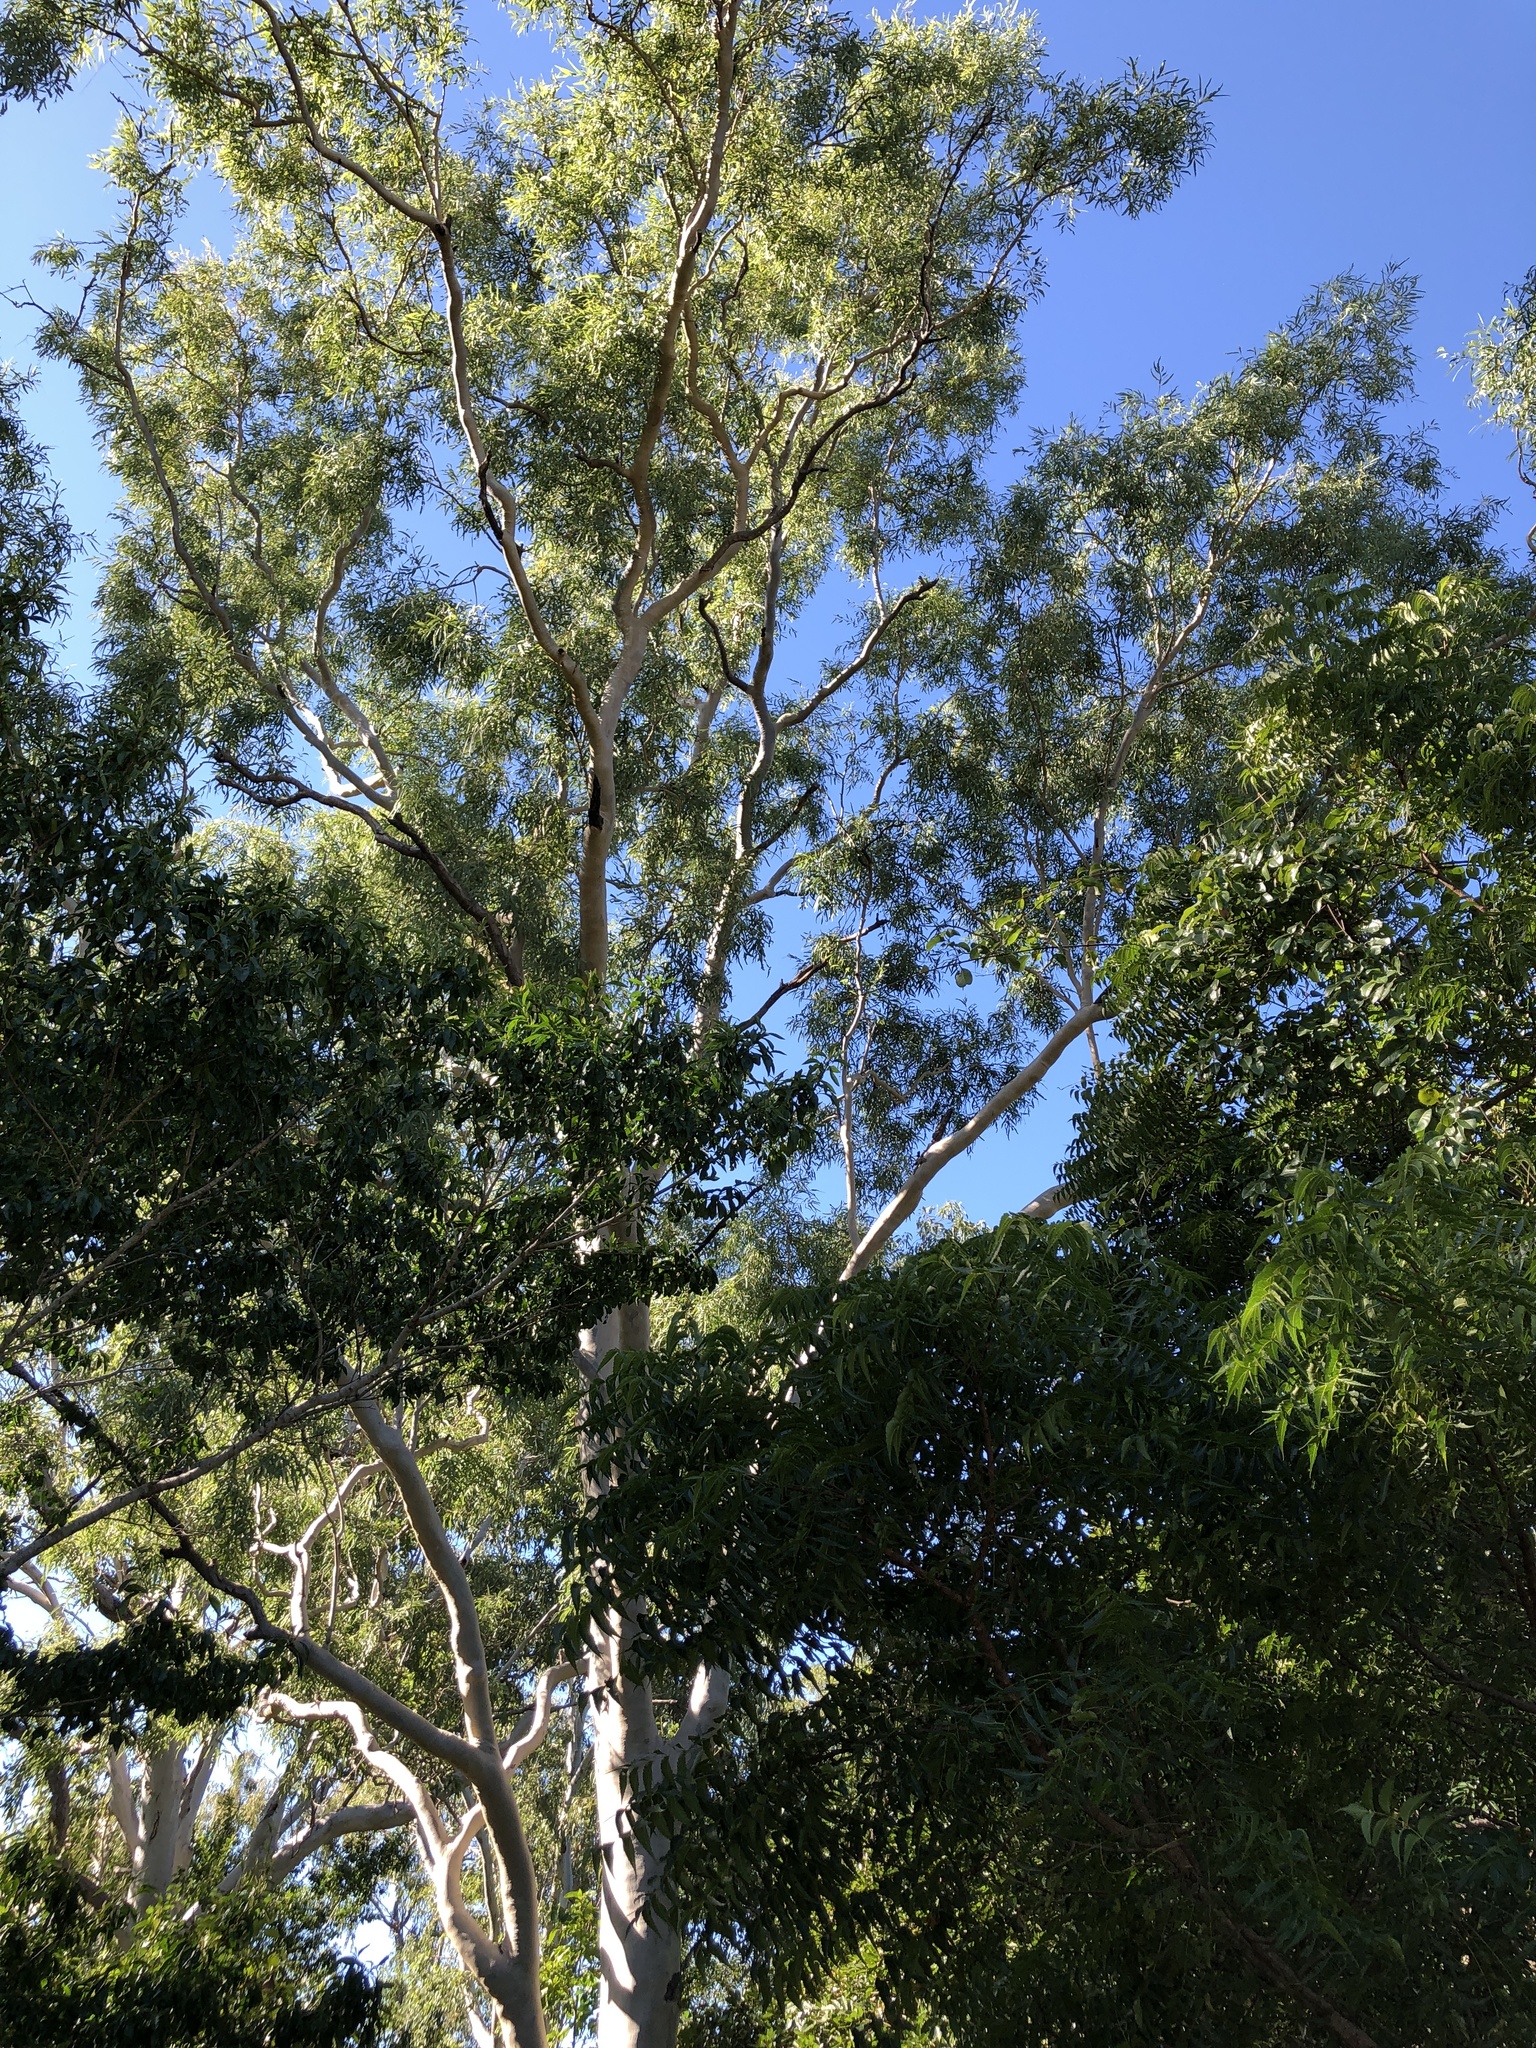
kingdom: Plantae
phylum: Tracheophyta
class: Magnoliopsida
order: Myrtales
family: Myrtaceae
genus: Corymbia
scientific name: Corymbia tessellaris
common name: Carbeen
